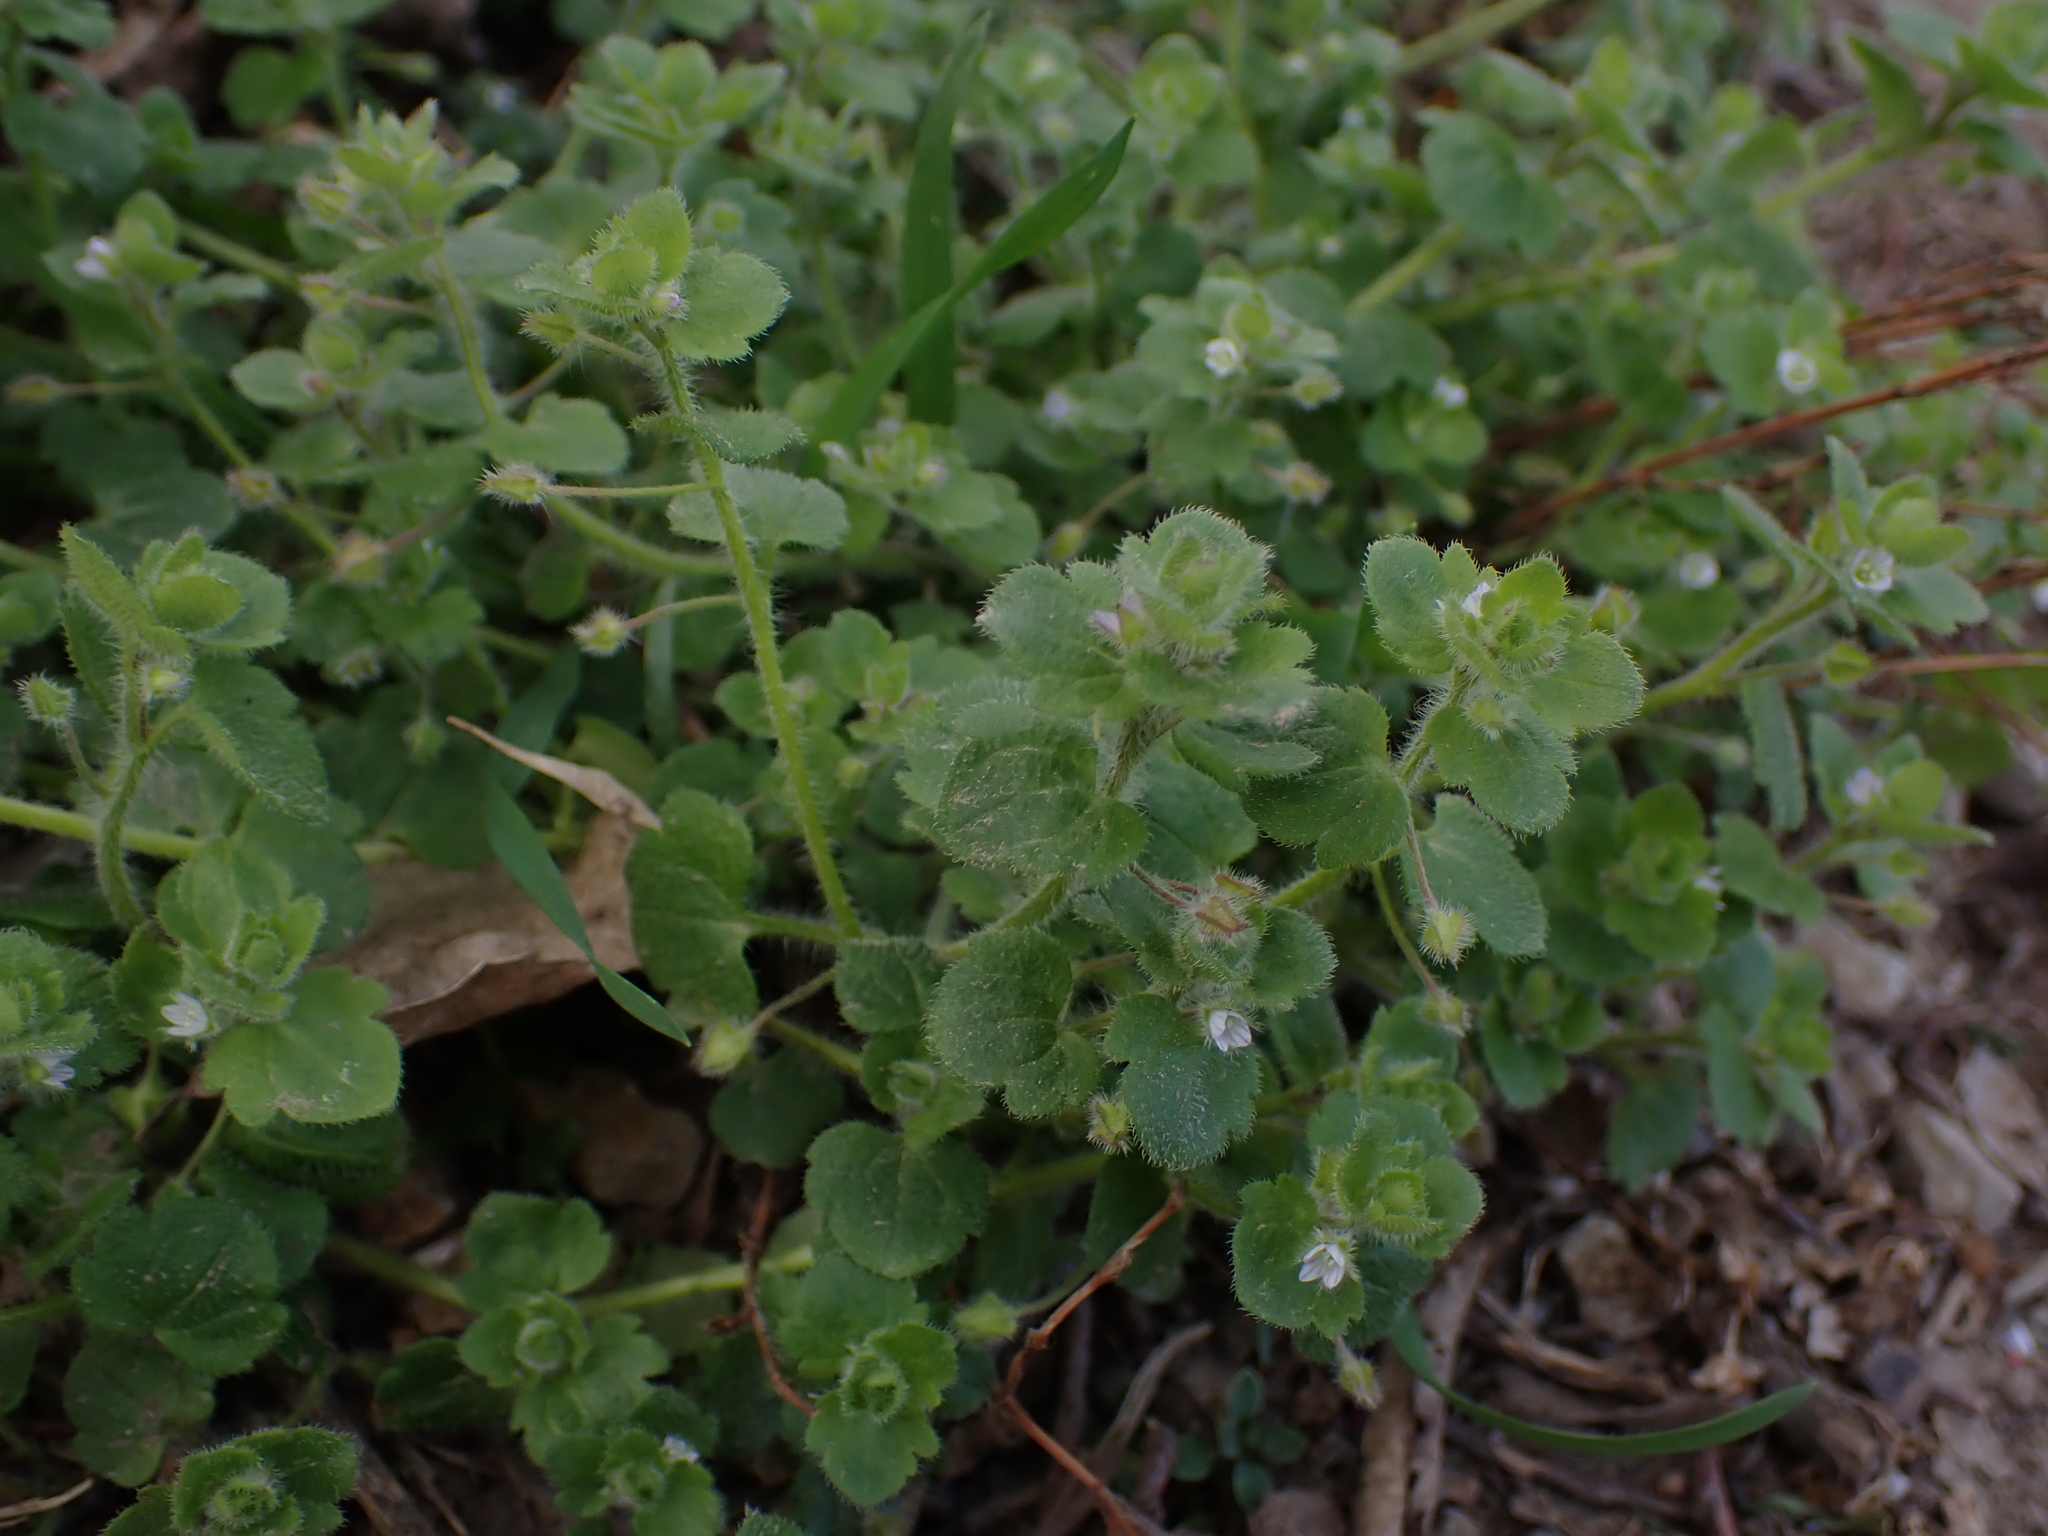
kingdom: Plantae
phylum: Tracheophyta
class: Magnoliopsida
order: Lamiales
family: Plantaginaceae
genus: Veronica
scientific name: Veronica sublobata
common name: False ivy-leaved speedwell
